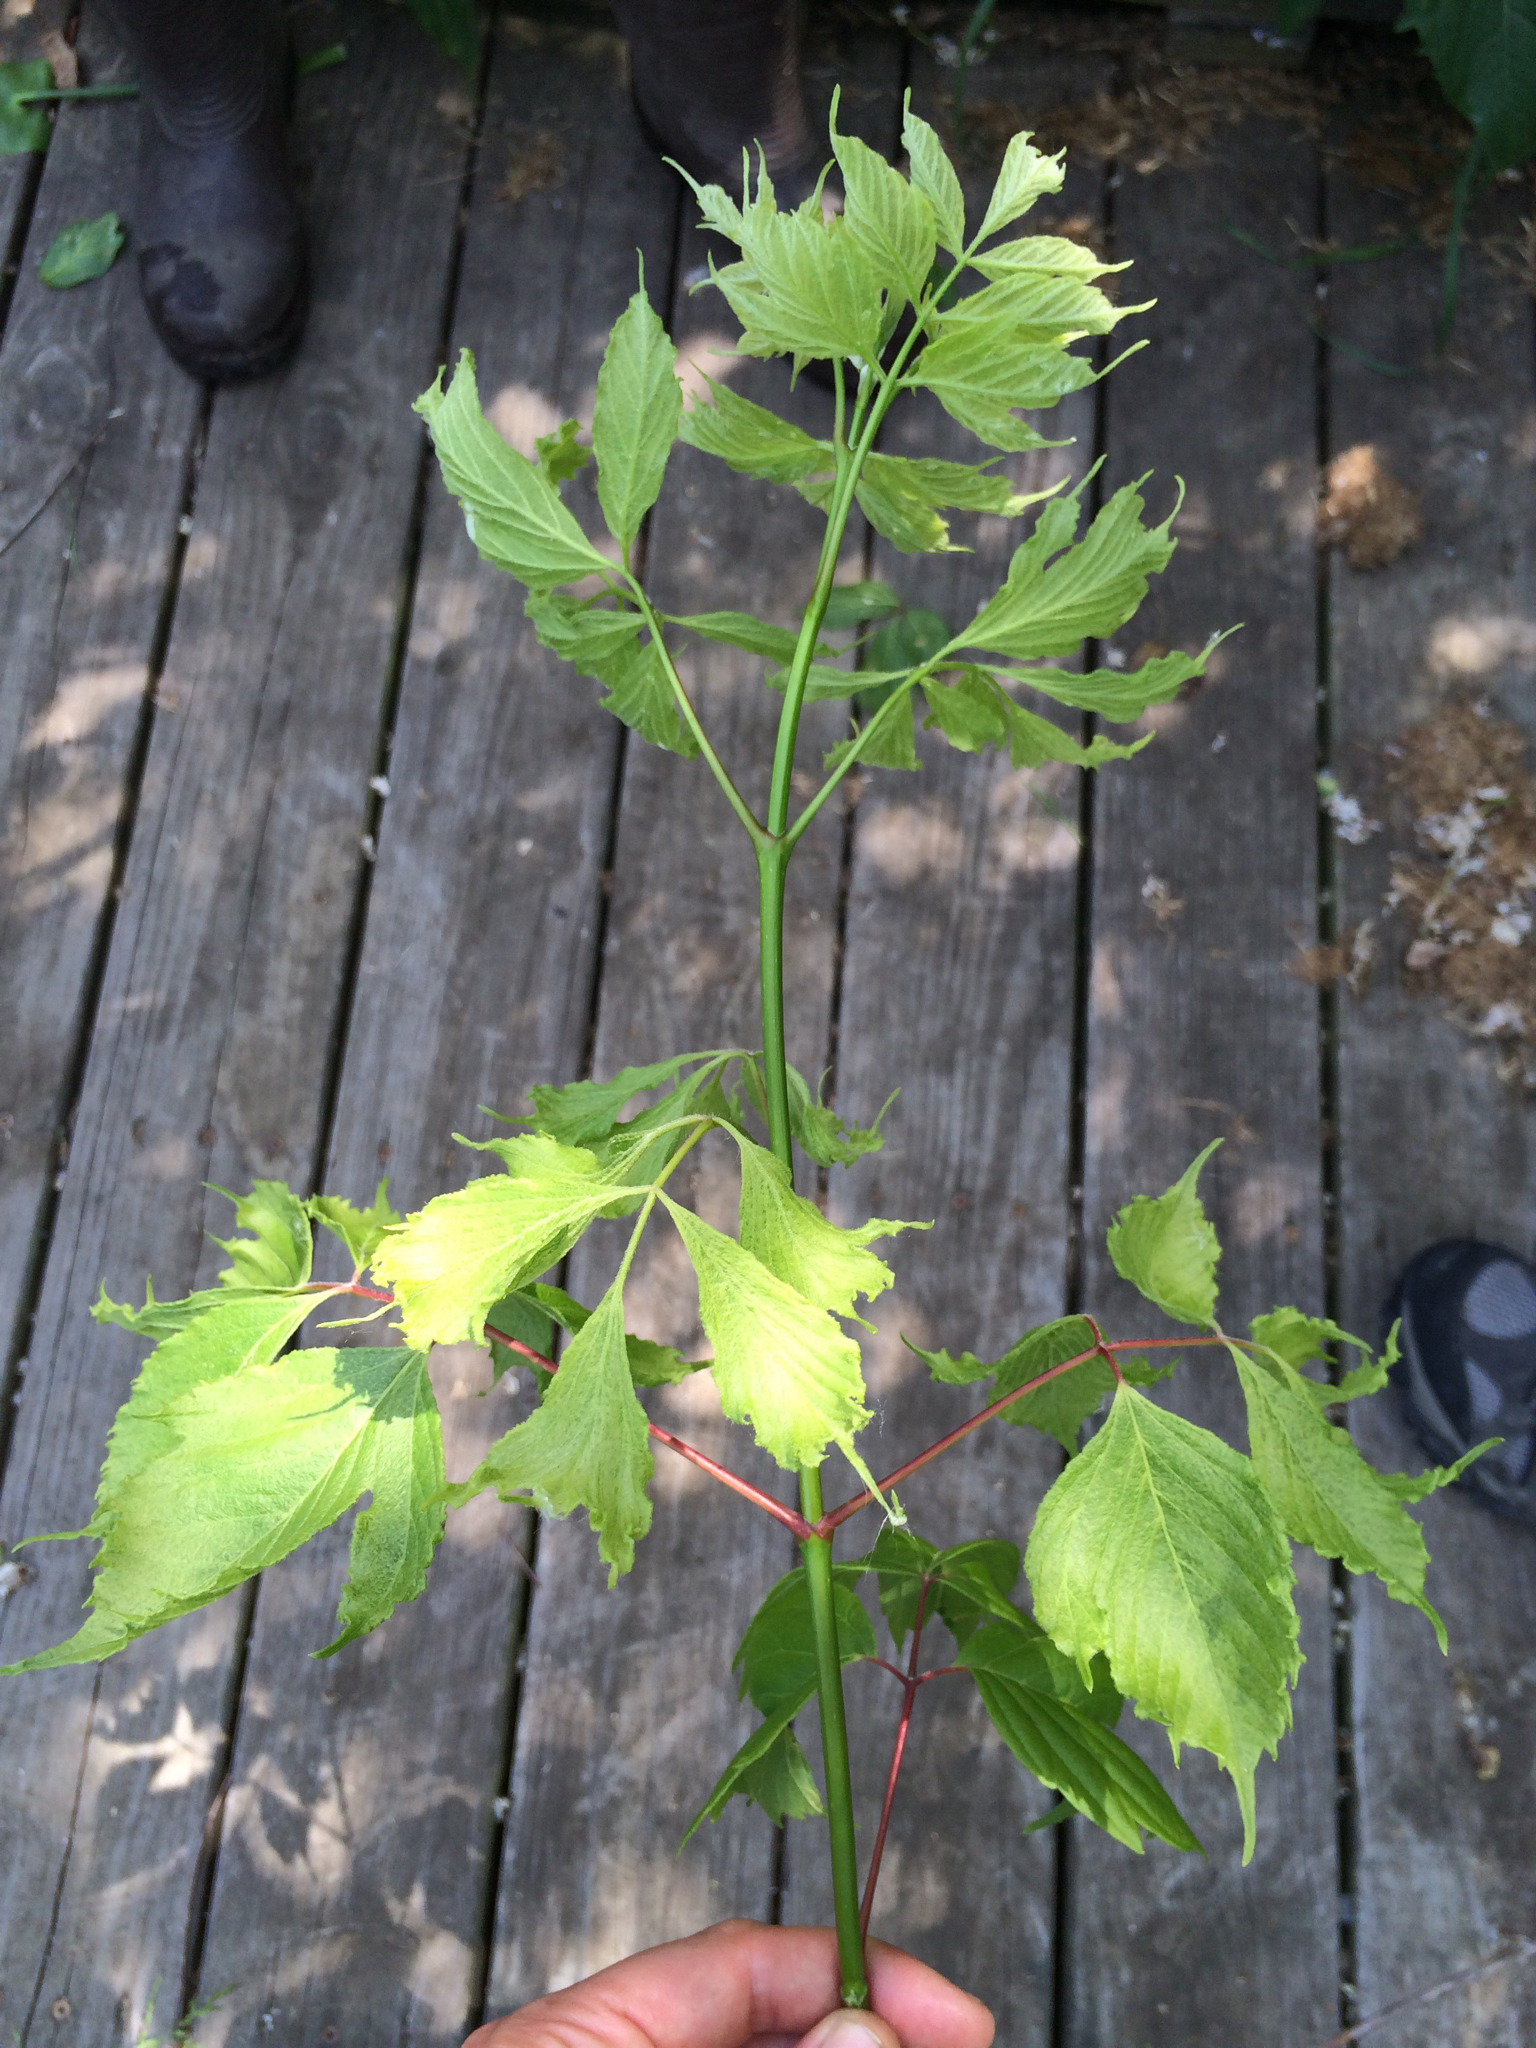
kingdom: Plantae
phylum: Tracheophyta
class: Magnoliopsida
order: Sapindales
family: Sapindaceae
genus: Acer
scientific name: Acer negundo
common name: Ashleaf maple
